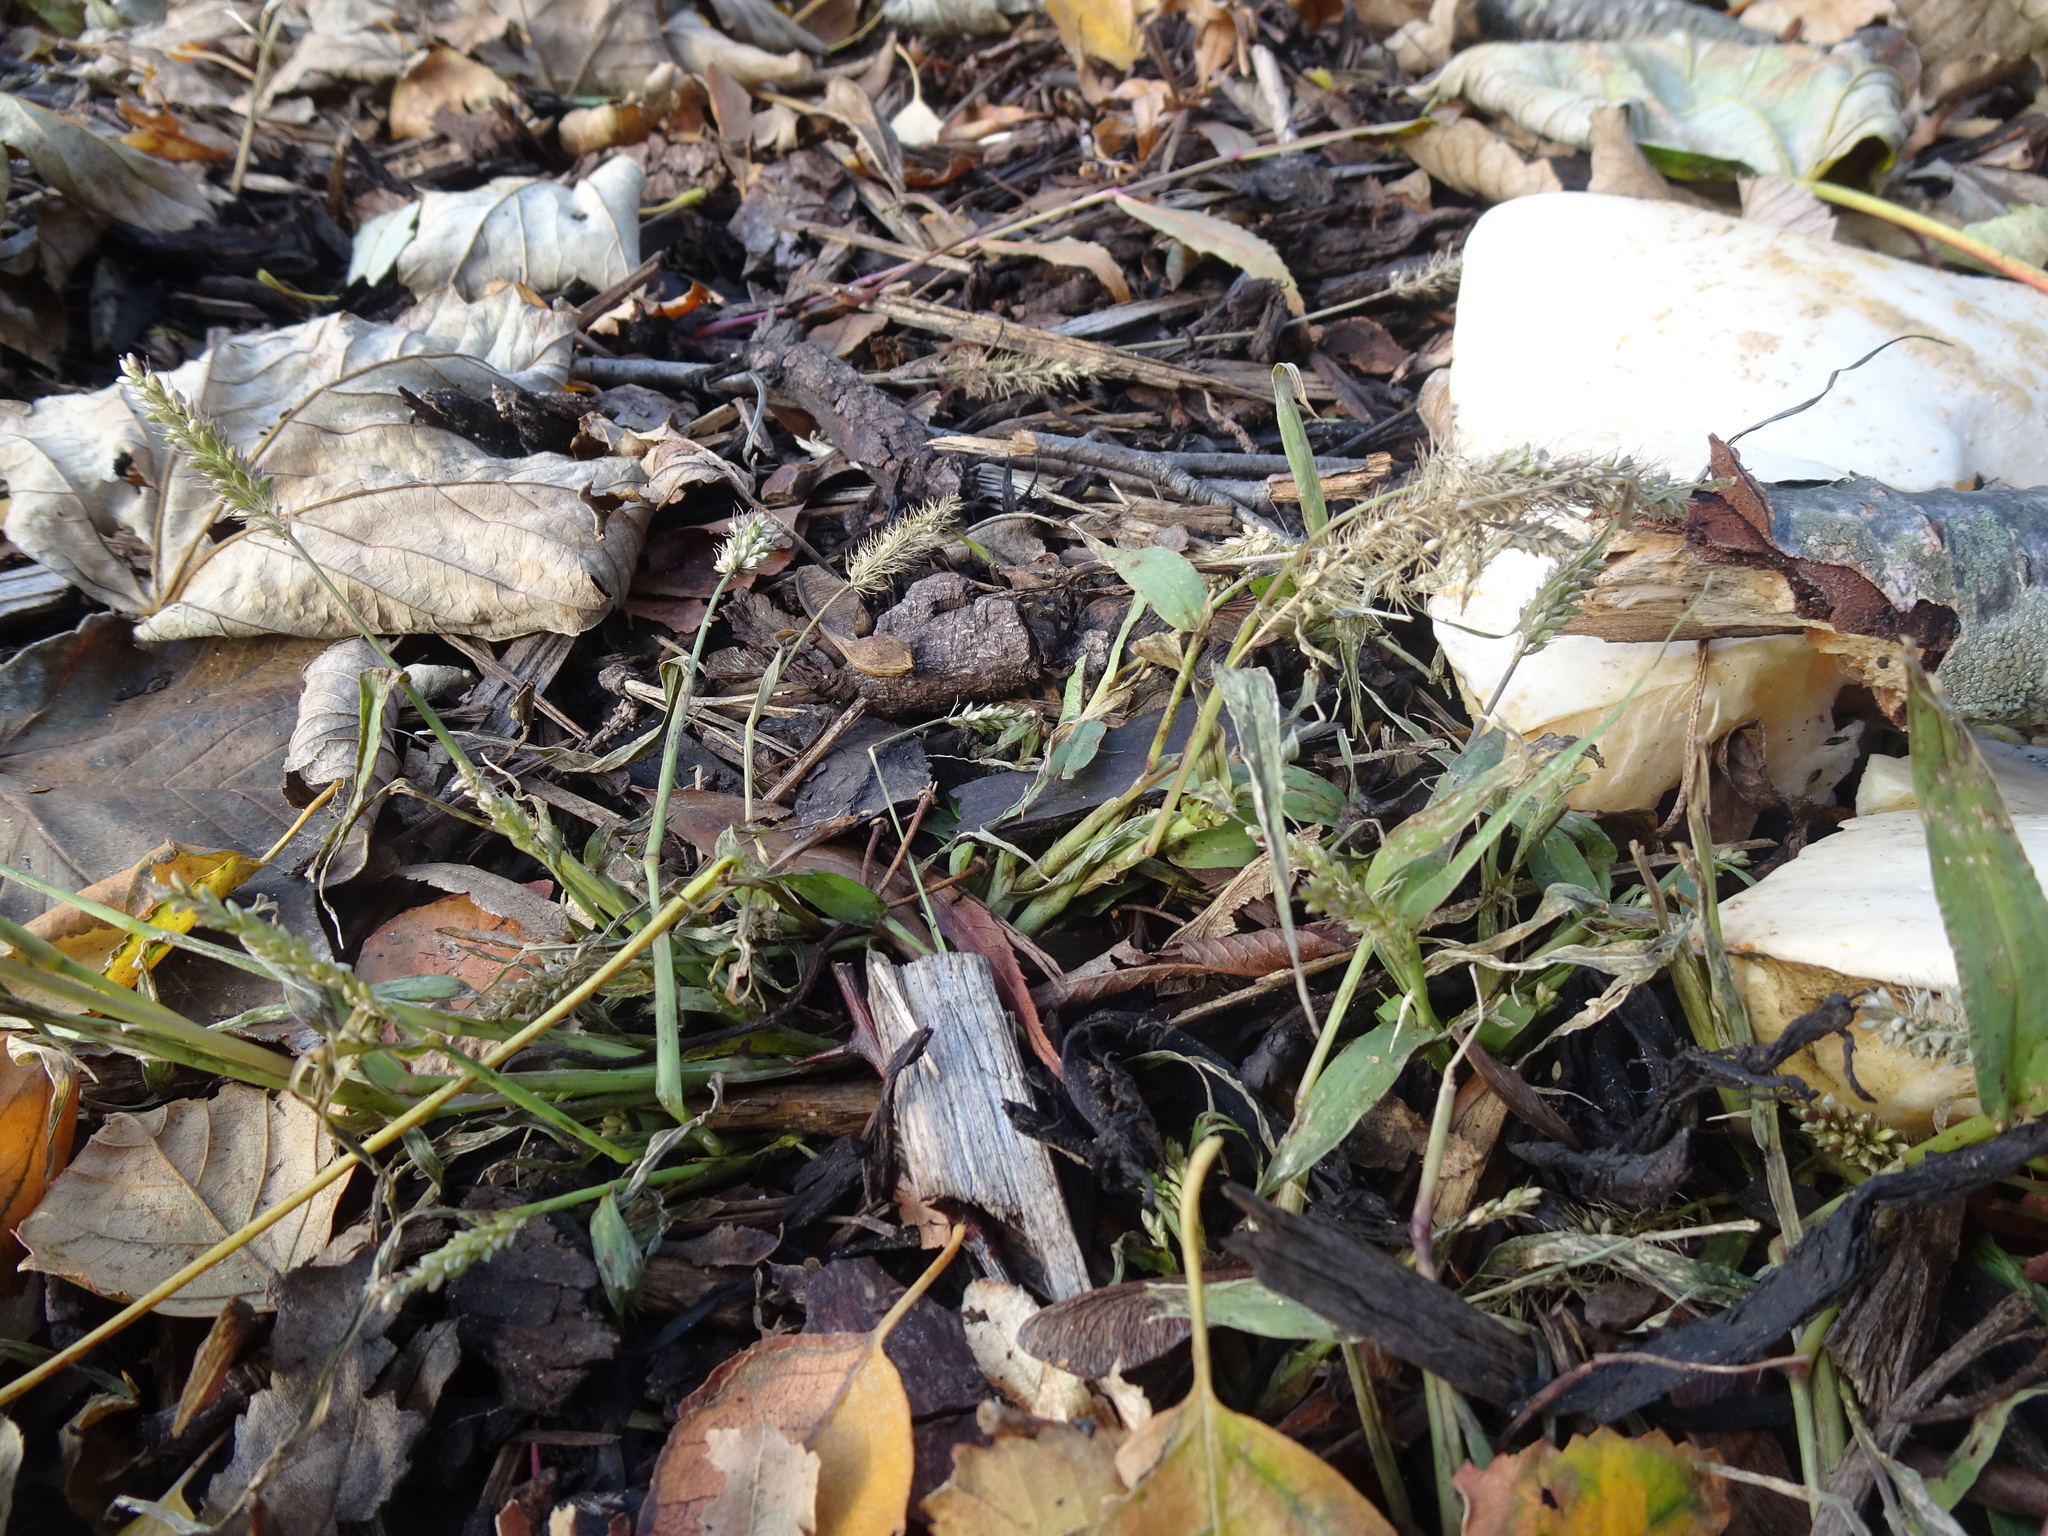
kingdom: Plantae
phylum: Tracheophyta
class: Liliopsida
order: Poales
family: Poaceae
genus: Setaria
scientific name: Setaria verticillata
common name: Hooked bristlegrass
